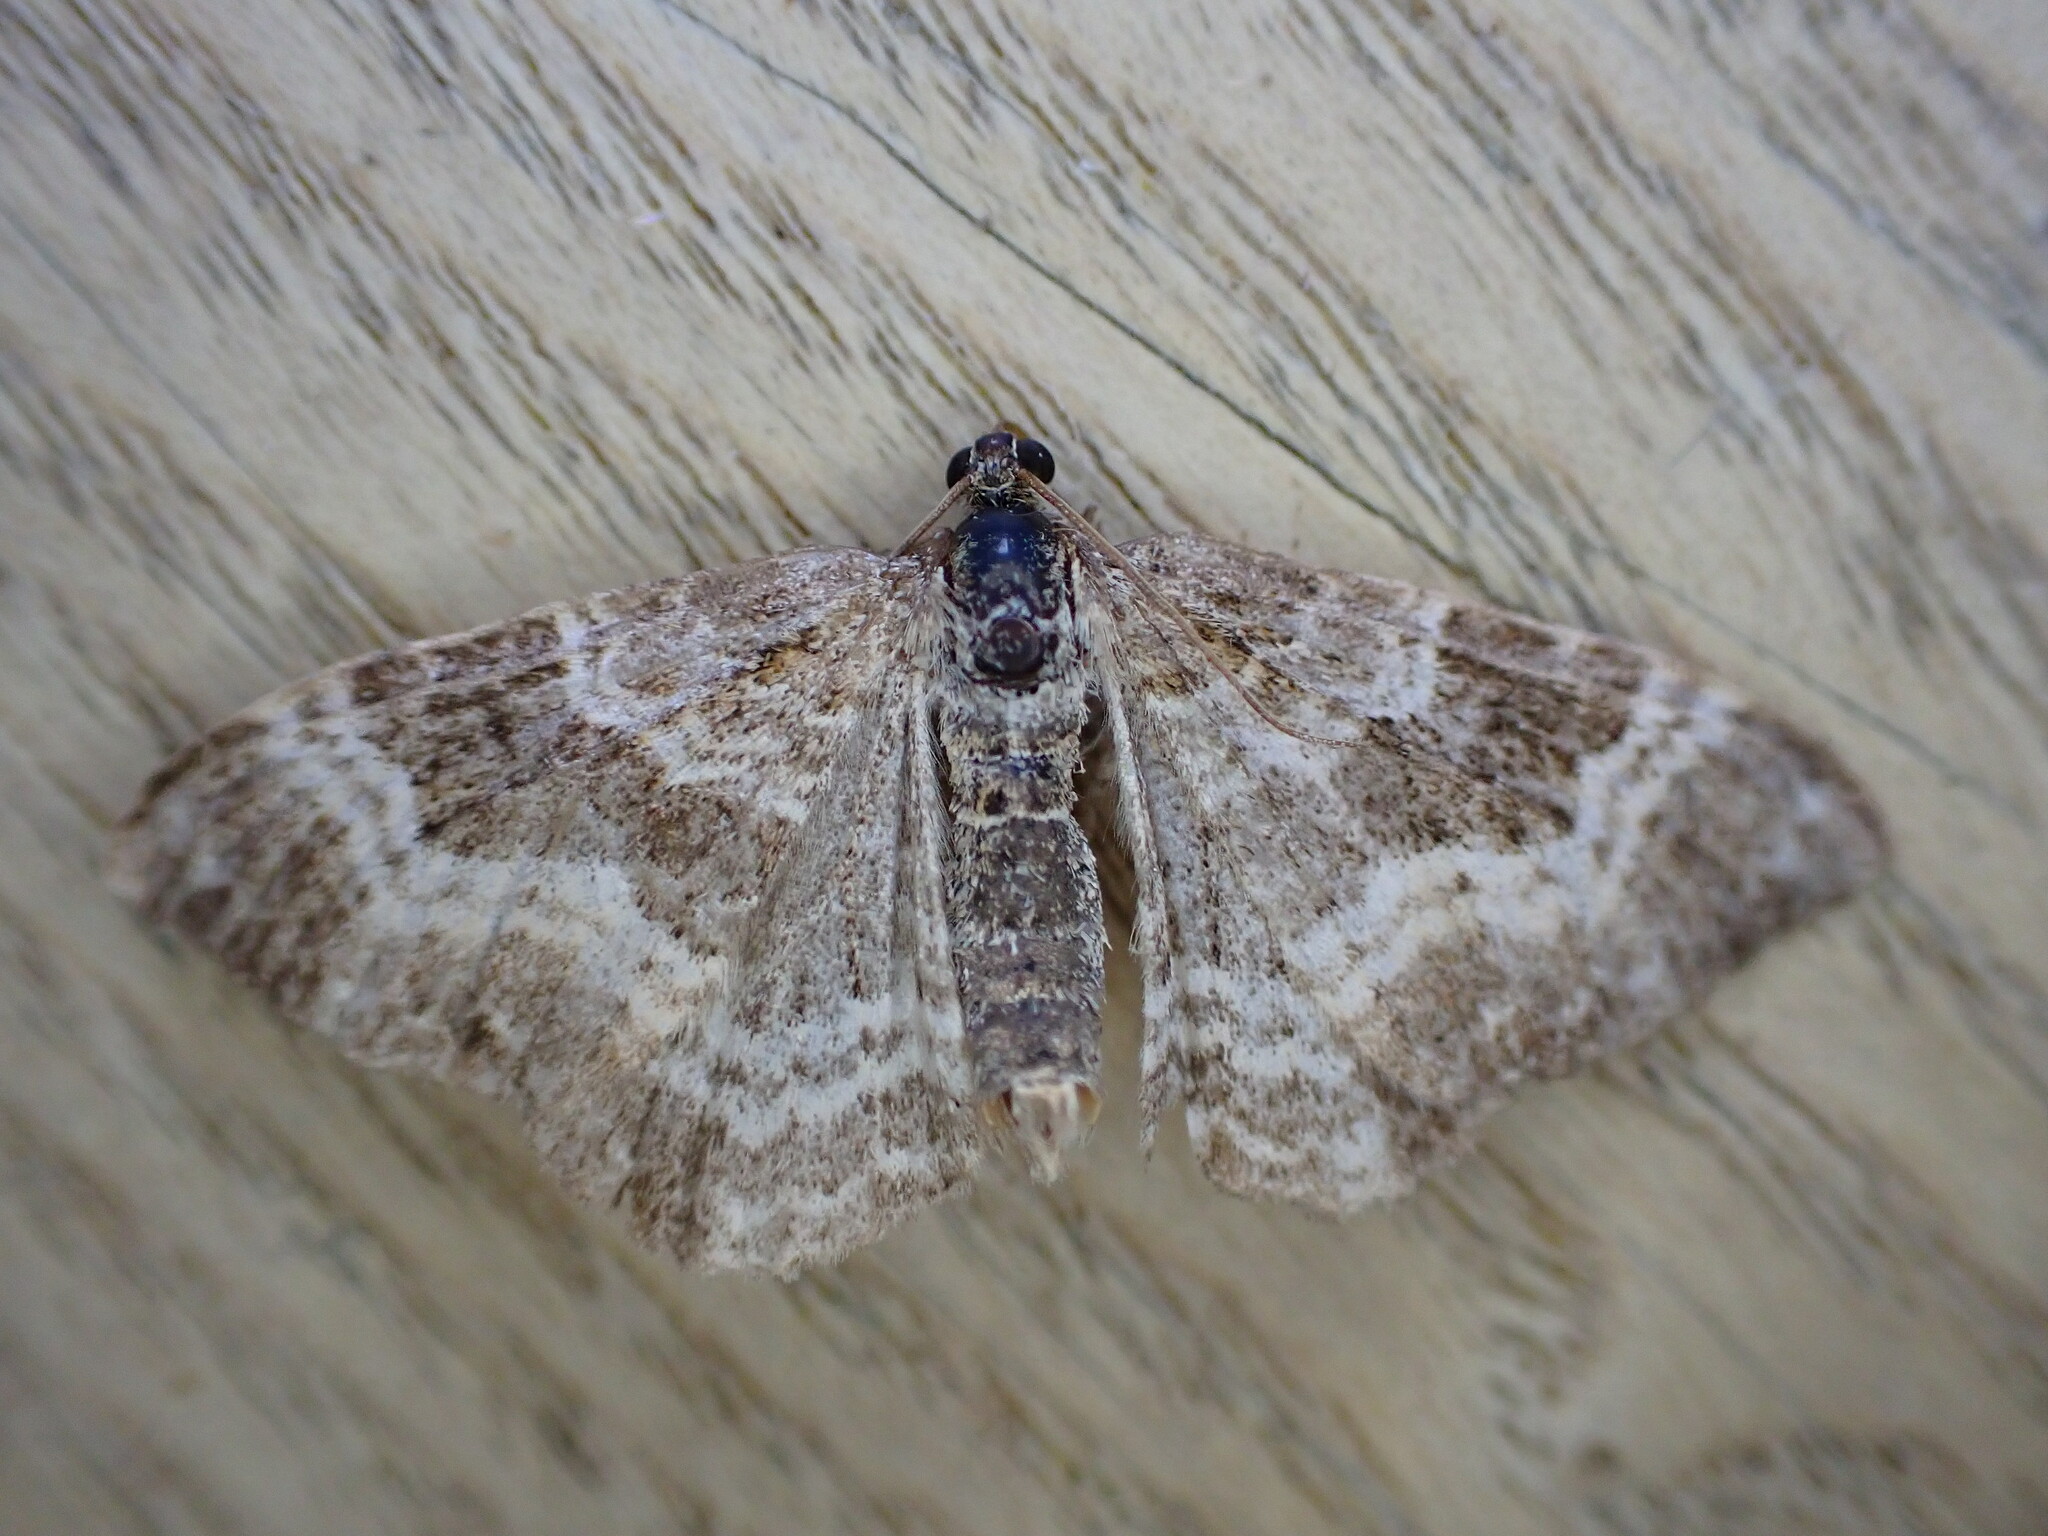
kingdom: Animalia
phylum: Arthropoda
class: Insecta
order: Lepidoptera
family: Geometridae
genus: Epirrhoe
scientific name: Epirrhoe alternata
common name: Common carpet
